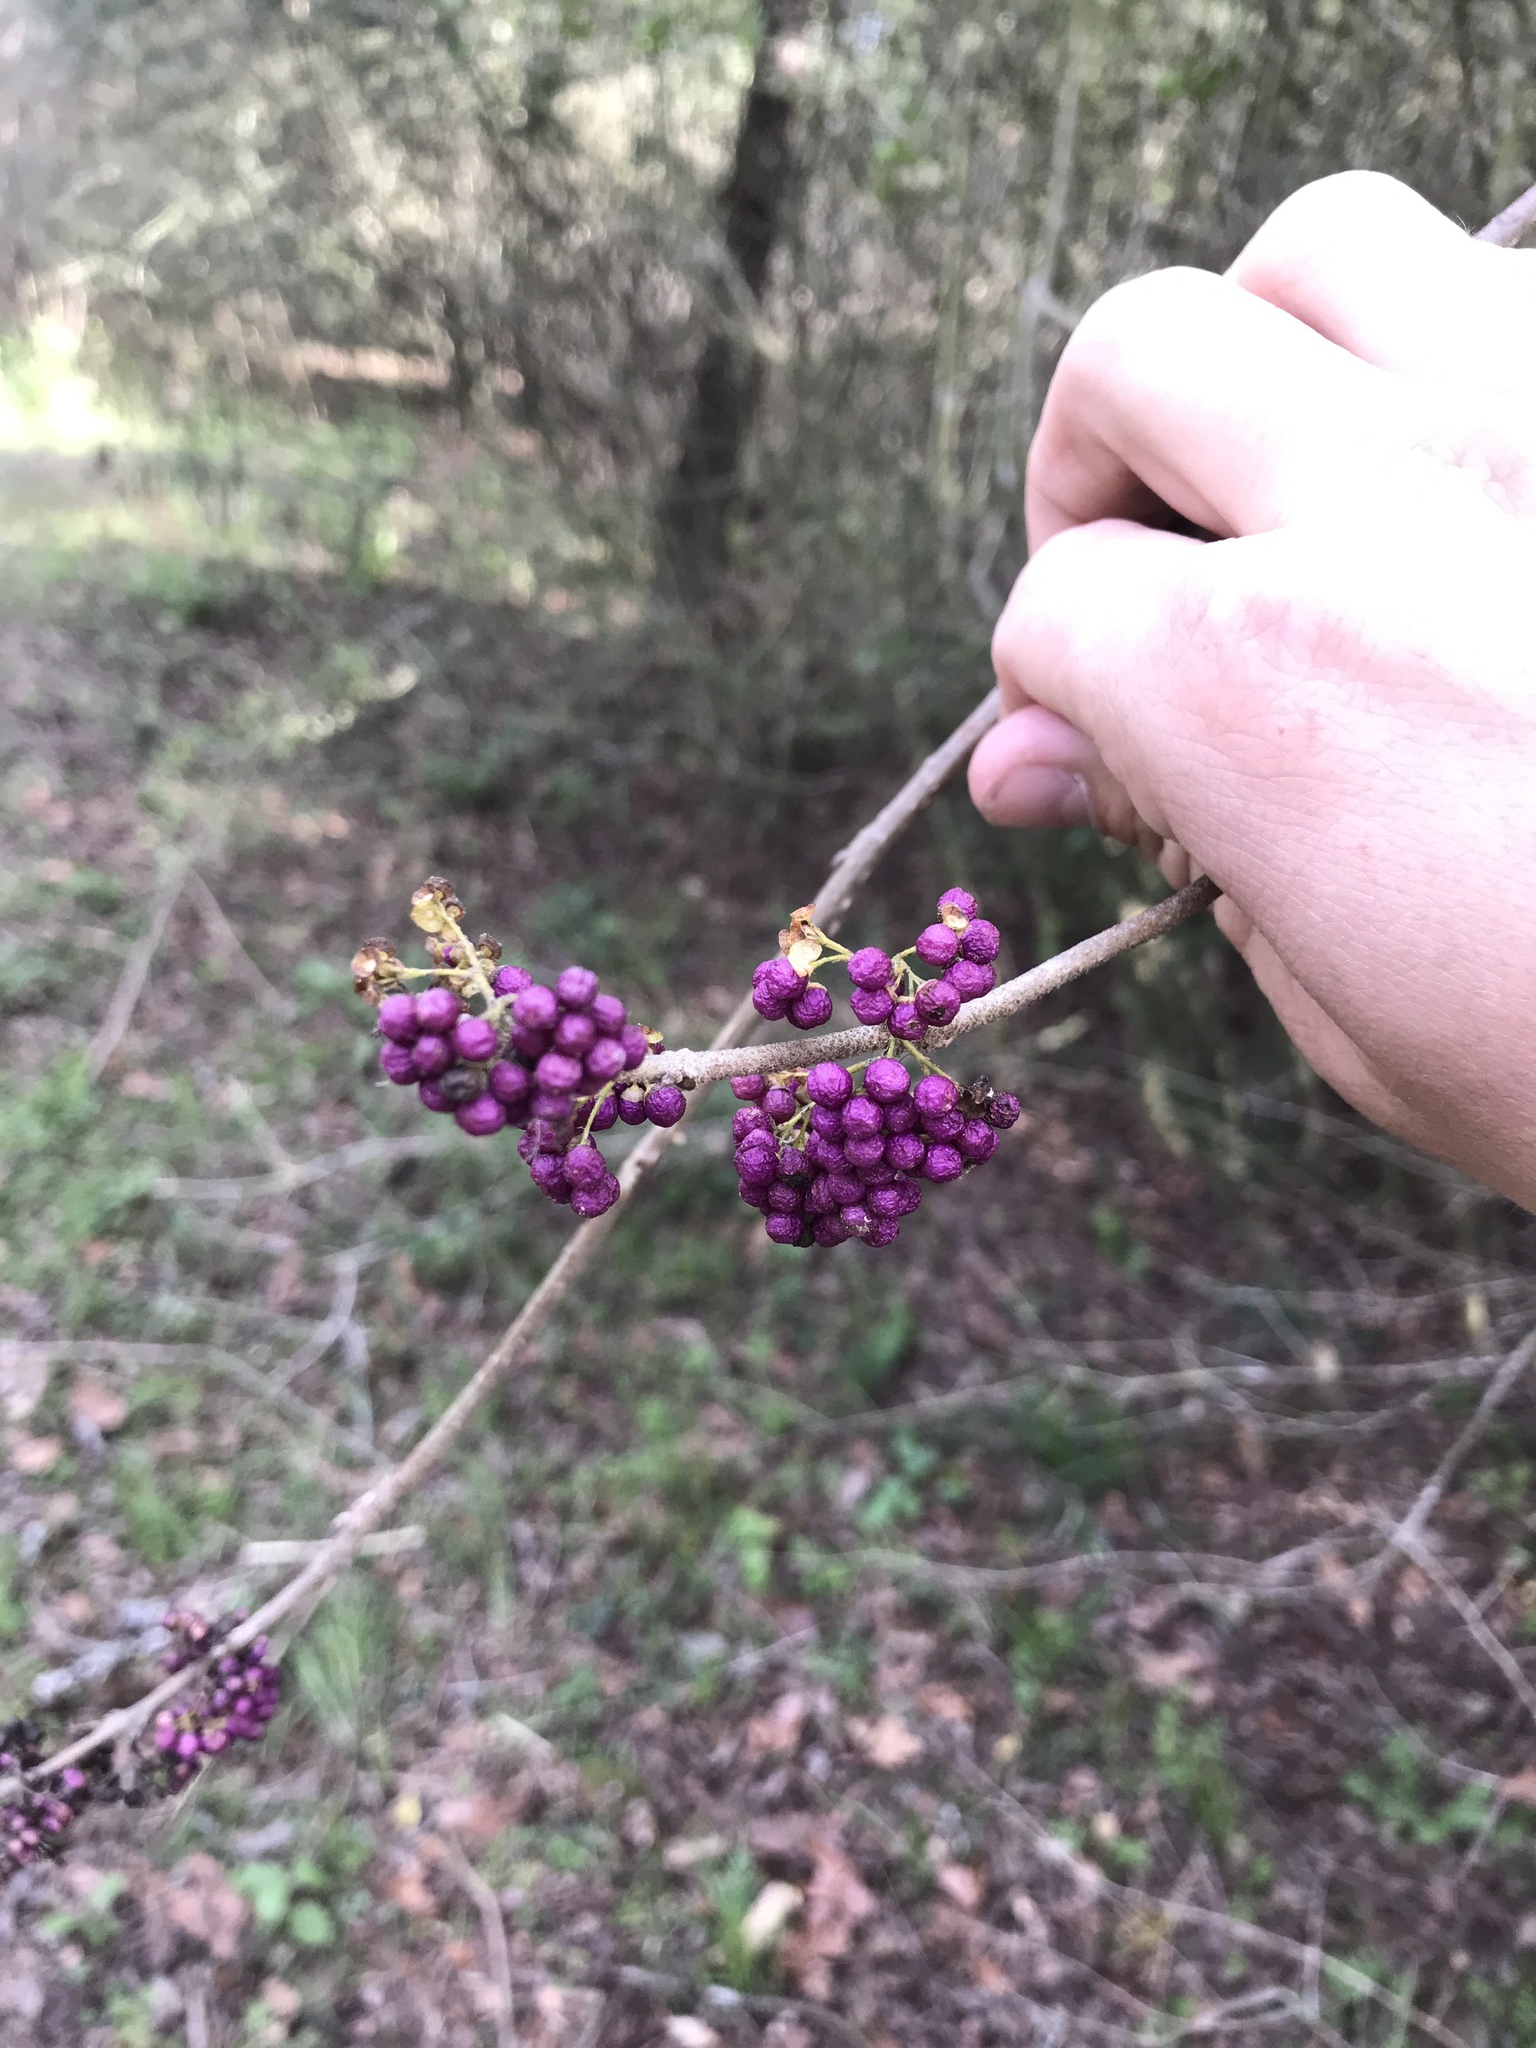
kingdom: Plantae
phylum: Tracheophyta
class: Magnoliopsida
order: Lamiales
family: Lamiaceae
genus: Callicarpa
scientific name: Callicarpa americana
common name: American beautyberry
